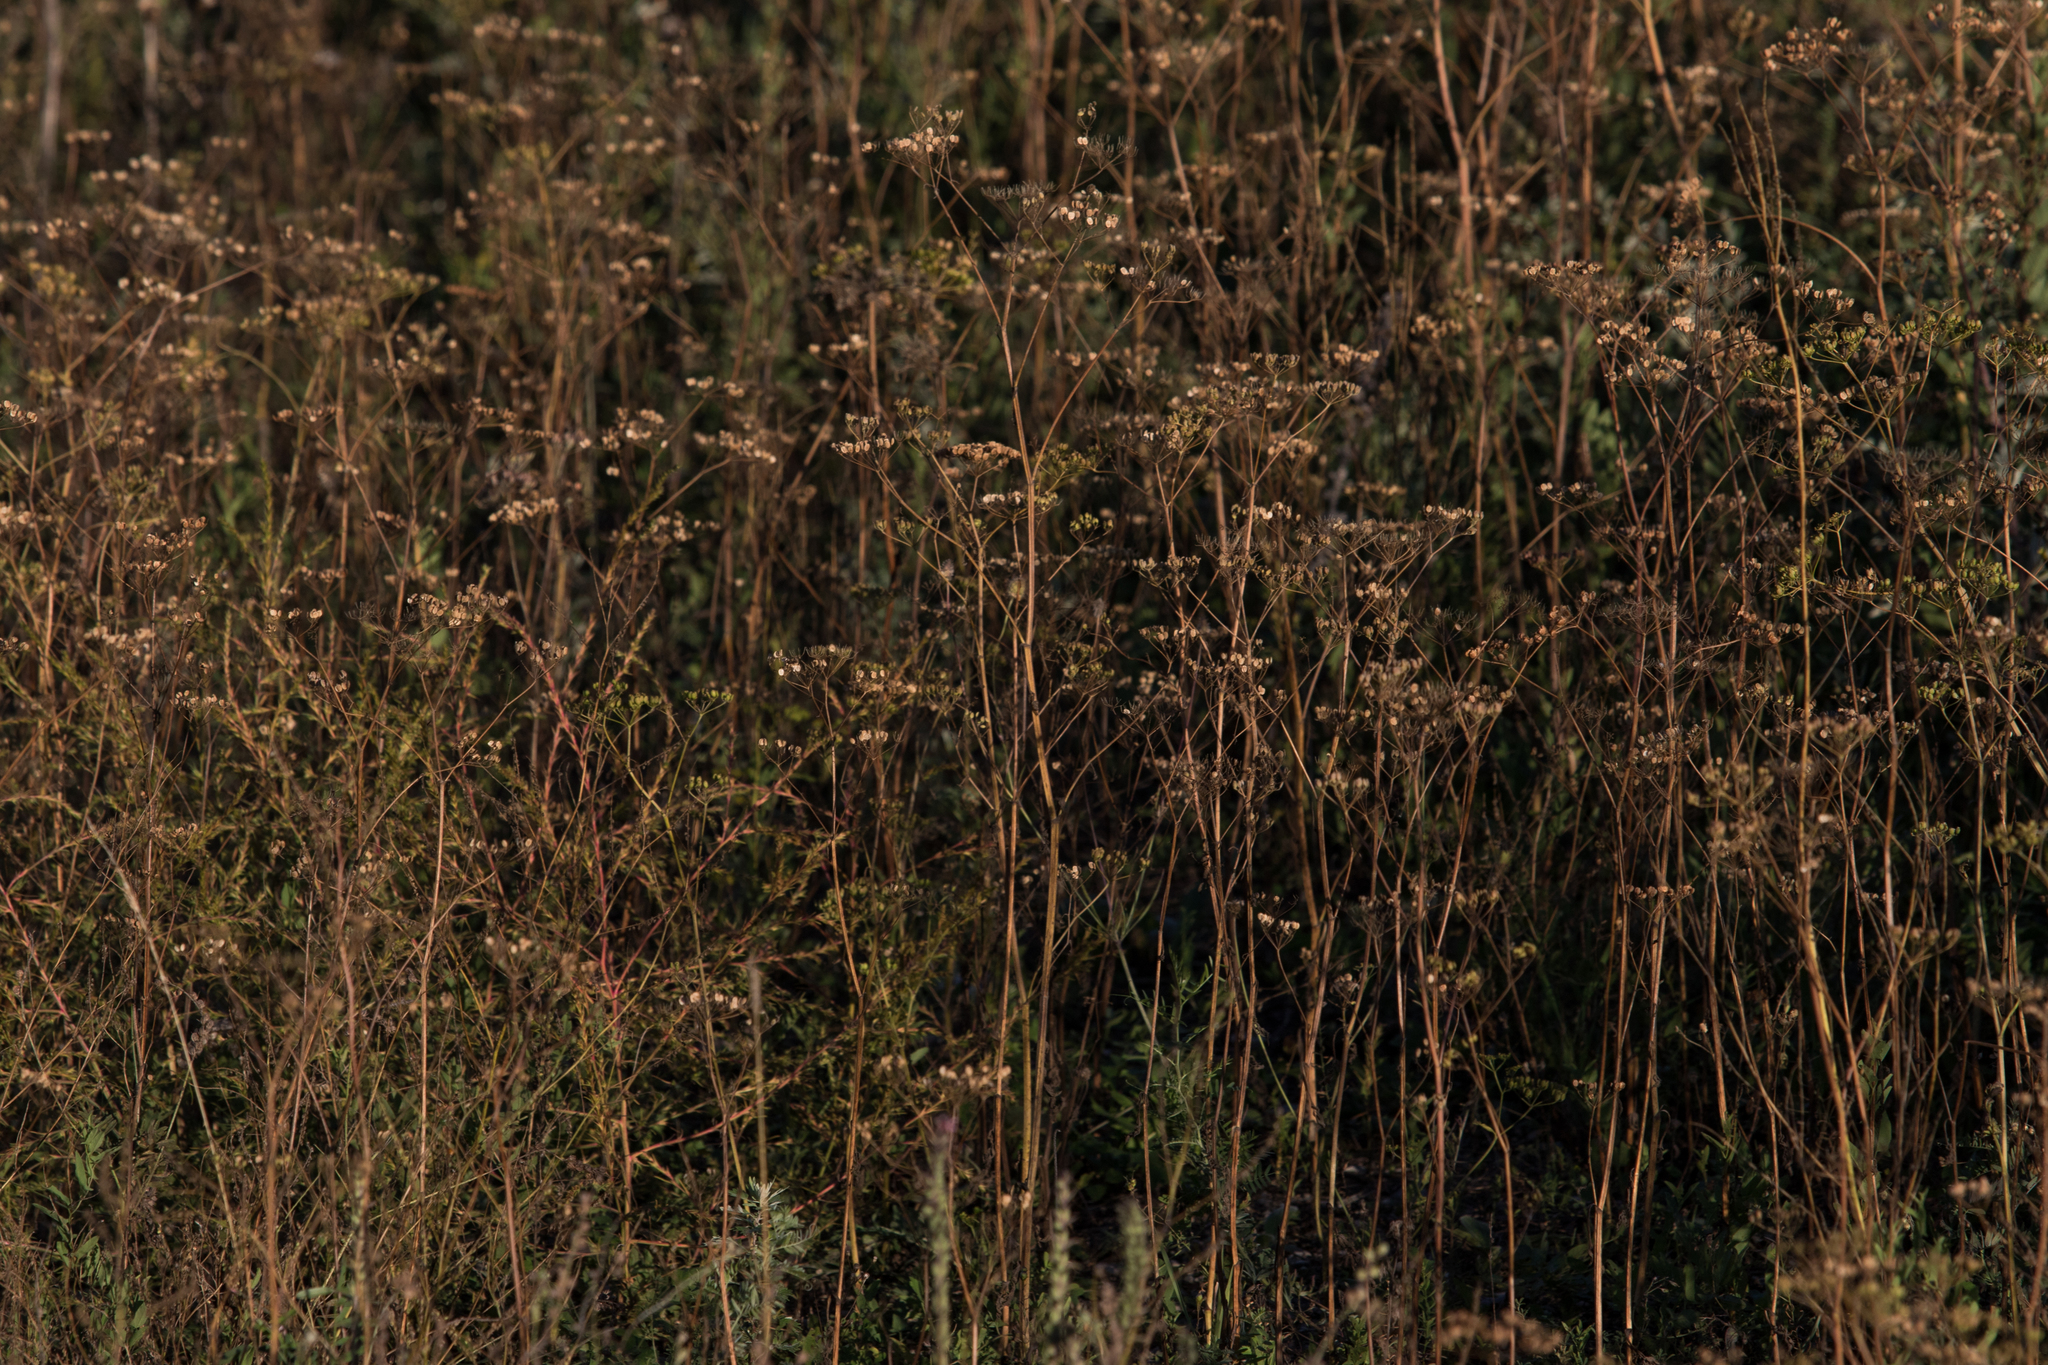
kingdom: Plantae
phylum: Tracheophyta
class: Magnoliopsida
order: Apiales
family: Apiaceae
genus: Pastinaca
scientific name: Pastinaca sativa
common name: Wild parsnip
